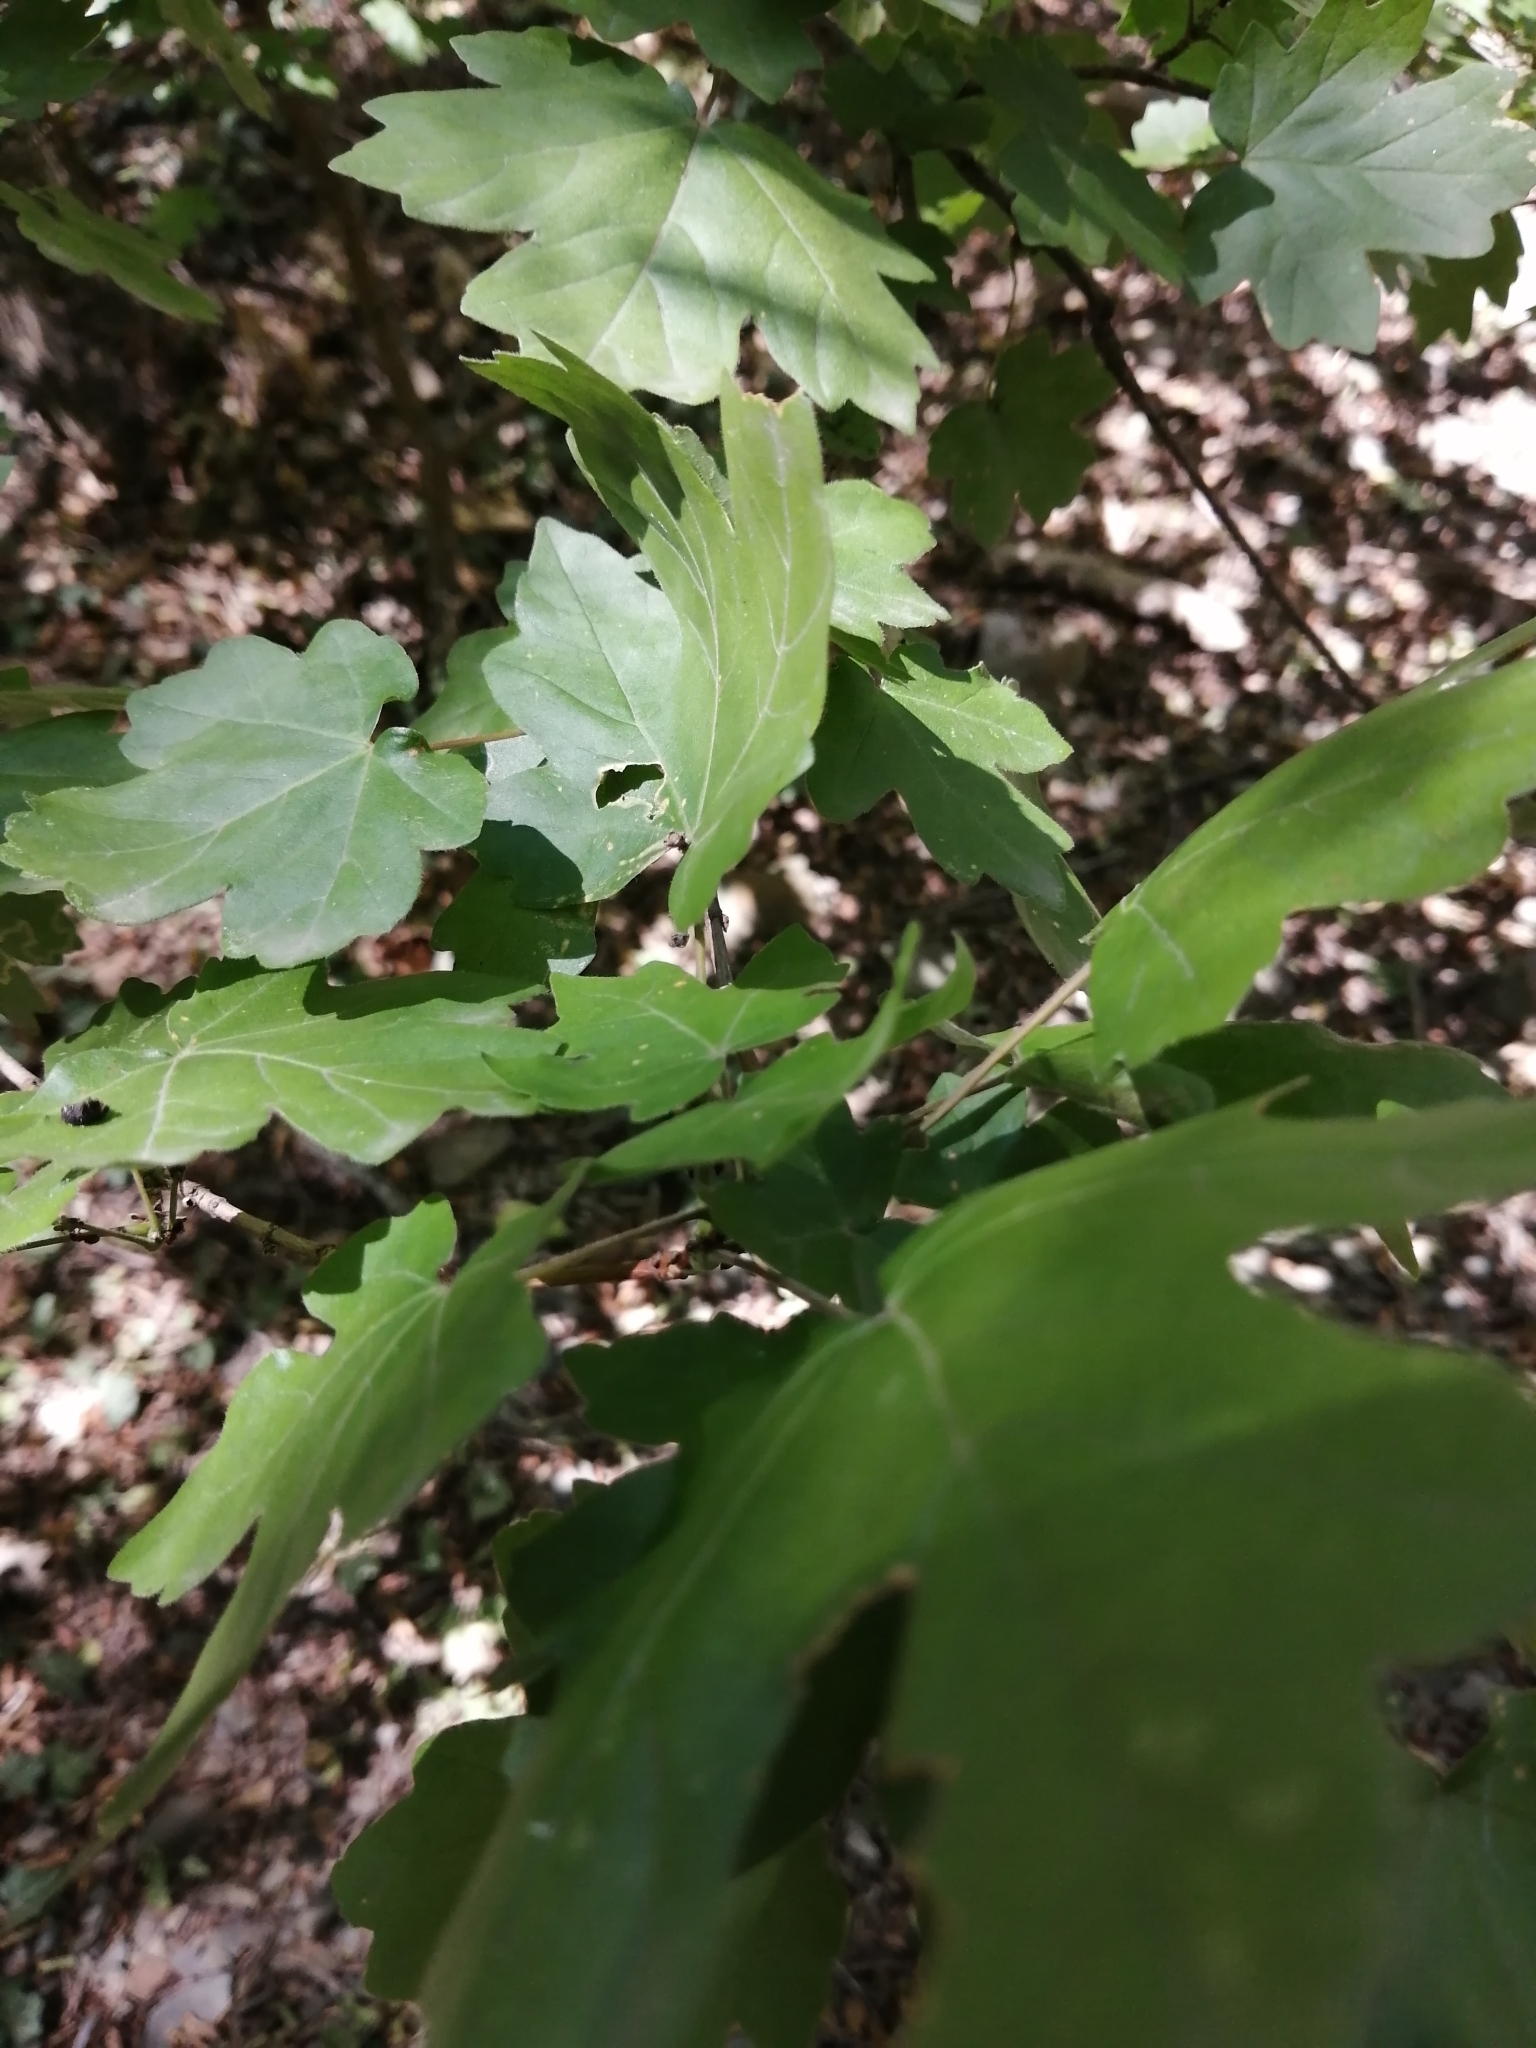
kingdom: Plantae
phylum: Tracheophyta
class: Magnoliopsida
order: Sapindales
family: Sapindaceae
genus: Acer
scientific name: Acer campestre
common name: Field maple
